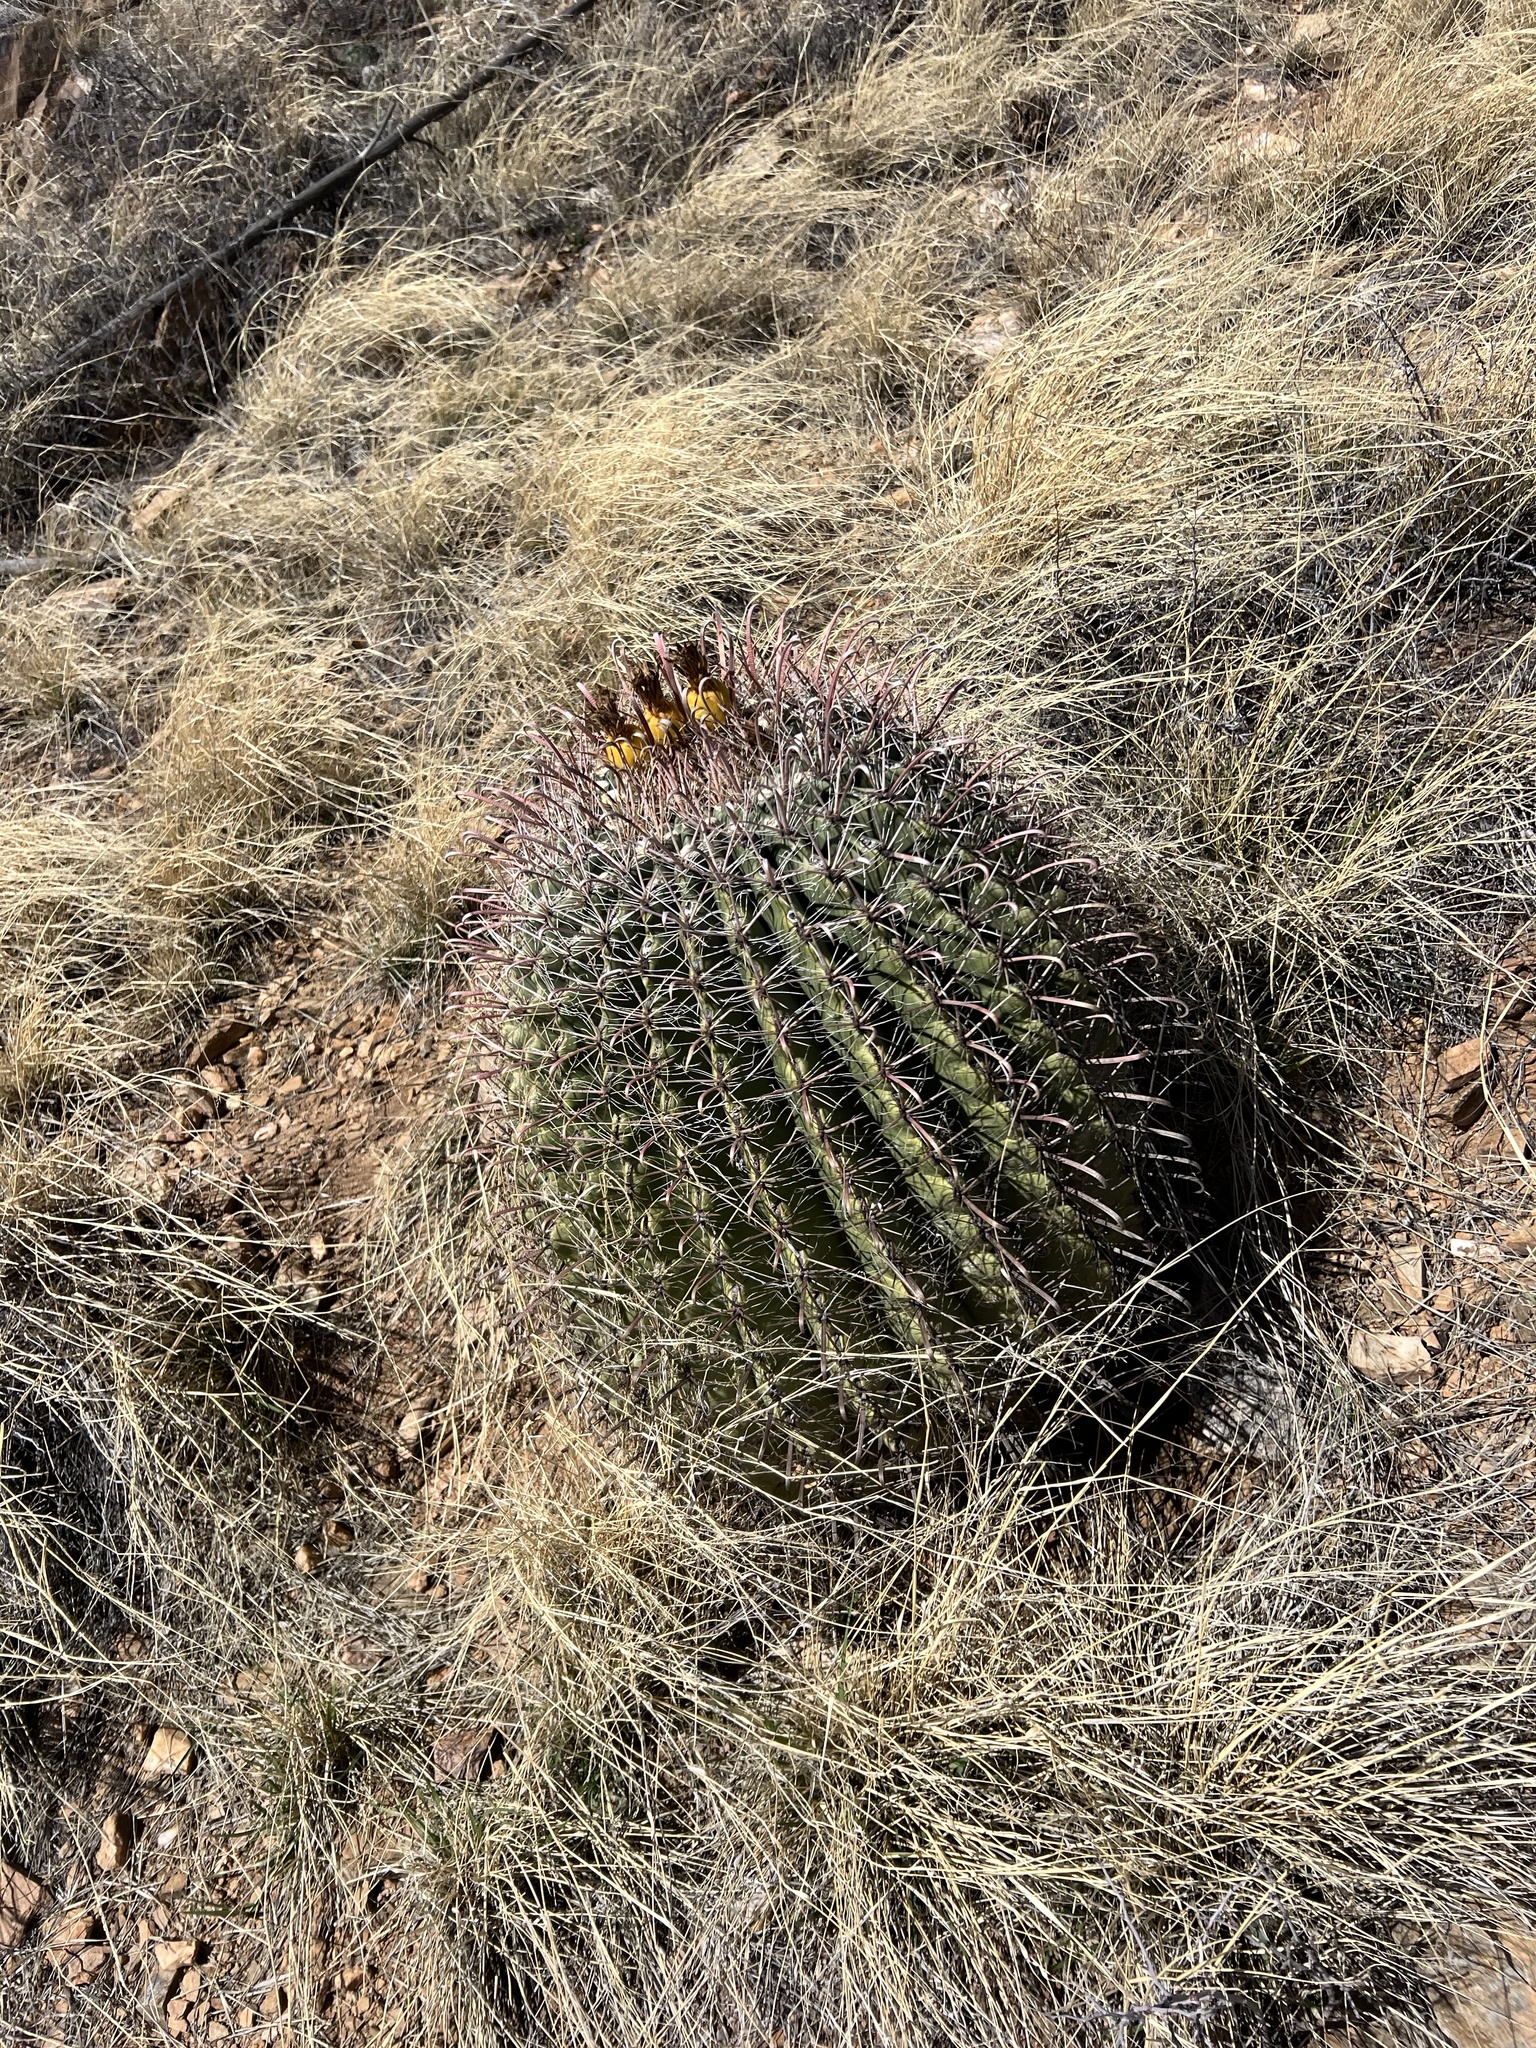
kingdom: Plantae
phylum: Tracheophyta
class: Magnoliopsida
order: Caryophyllales
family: Cactaceae
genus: Ferocactus
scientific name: Ferocactus wislizeni
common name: Candy barrel cactus
